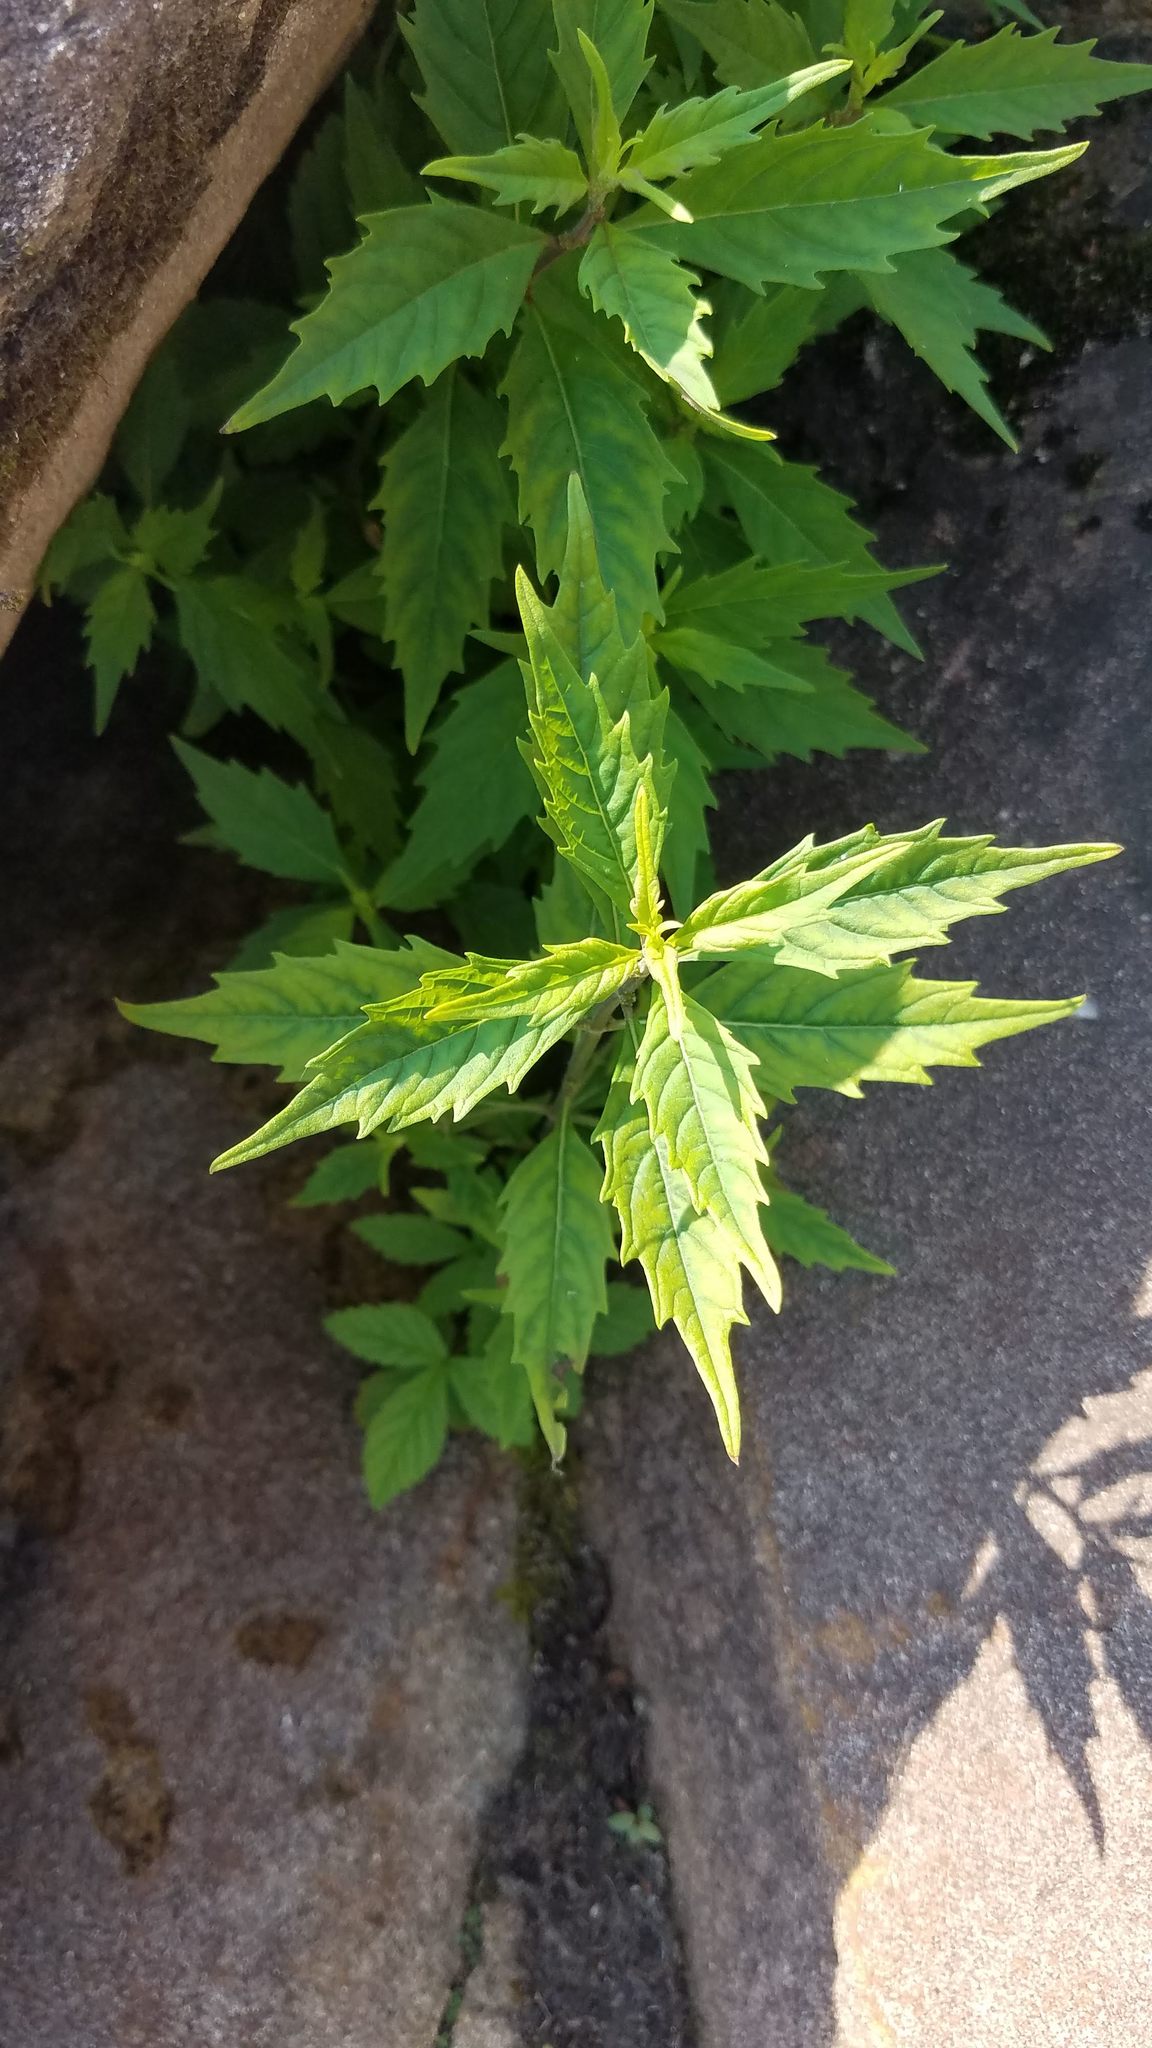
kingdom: Plantae
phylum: Tracheophyta
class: Magnoliopsida
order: Lamiales
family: Lamiaceae
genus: Lycopus
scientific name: Lycopus uniflorus
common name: Northern bugleweed
